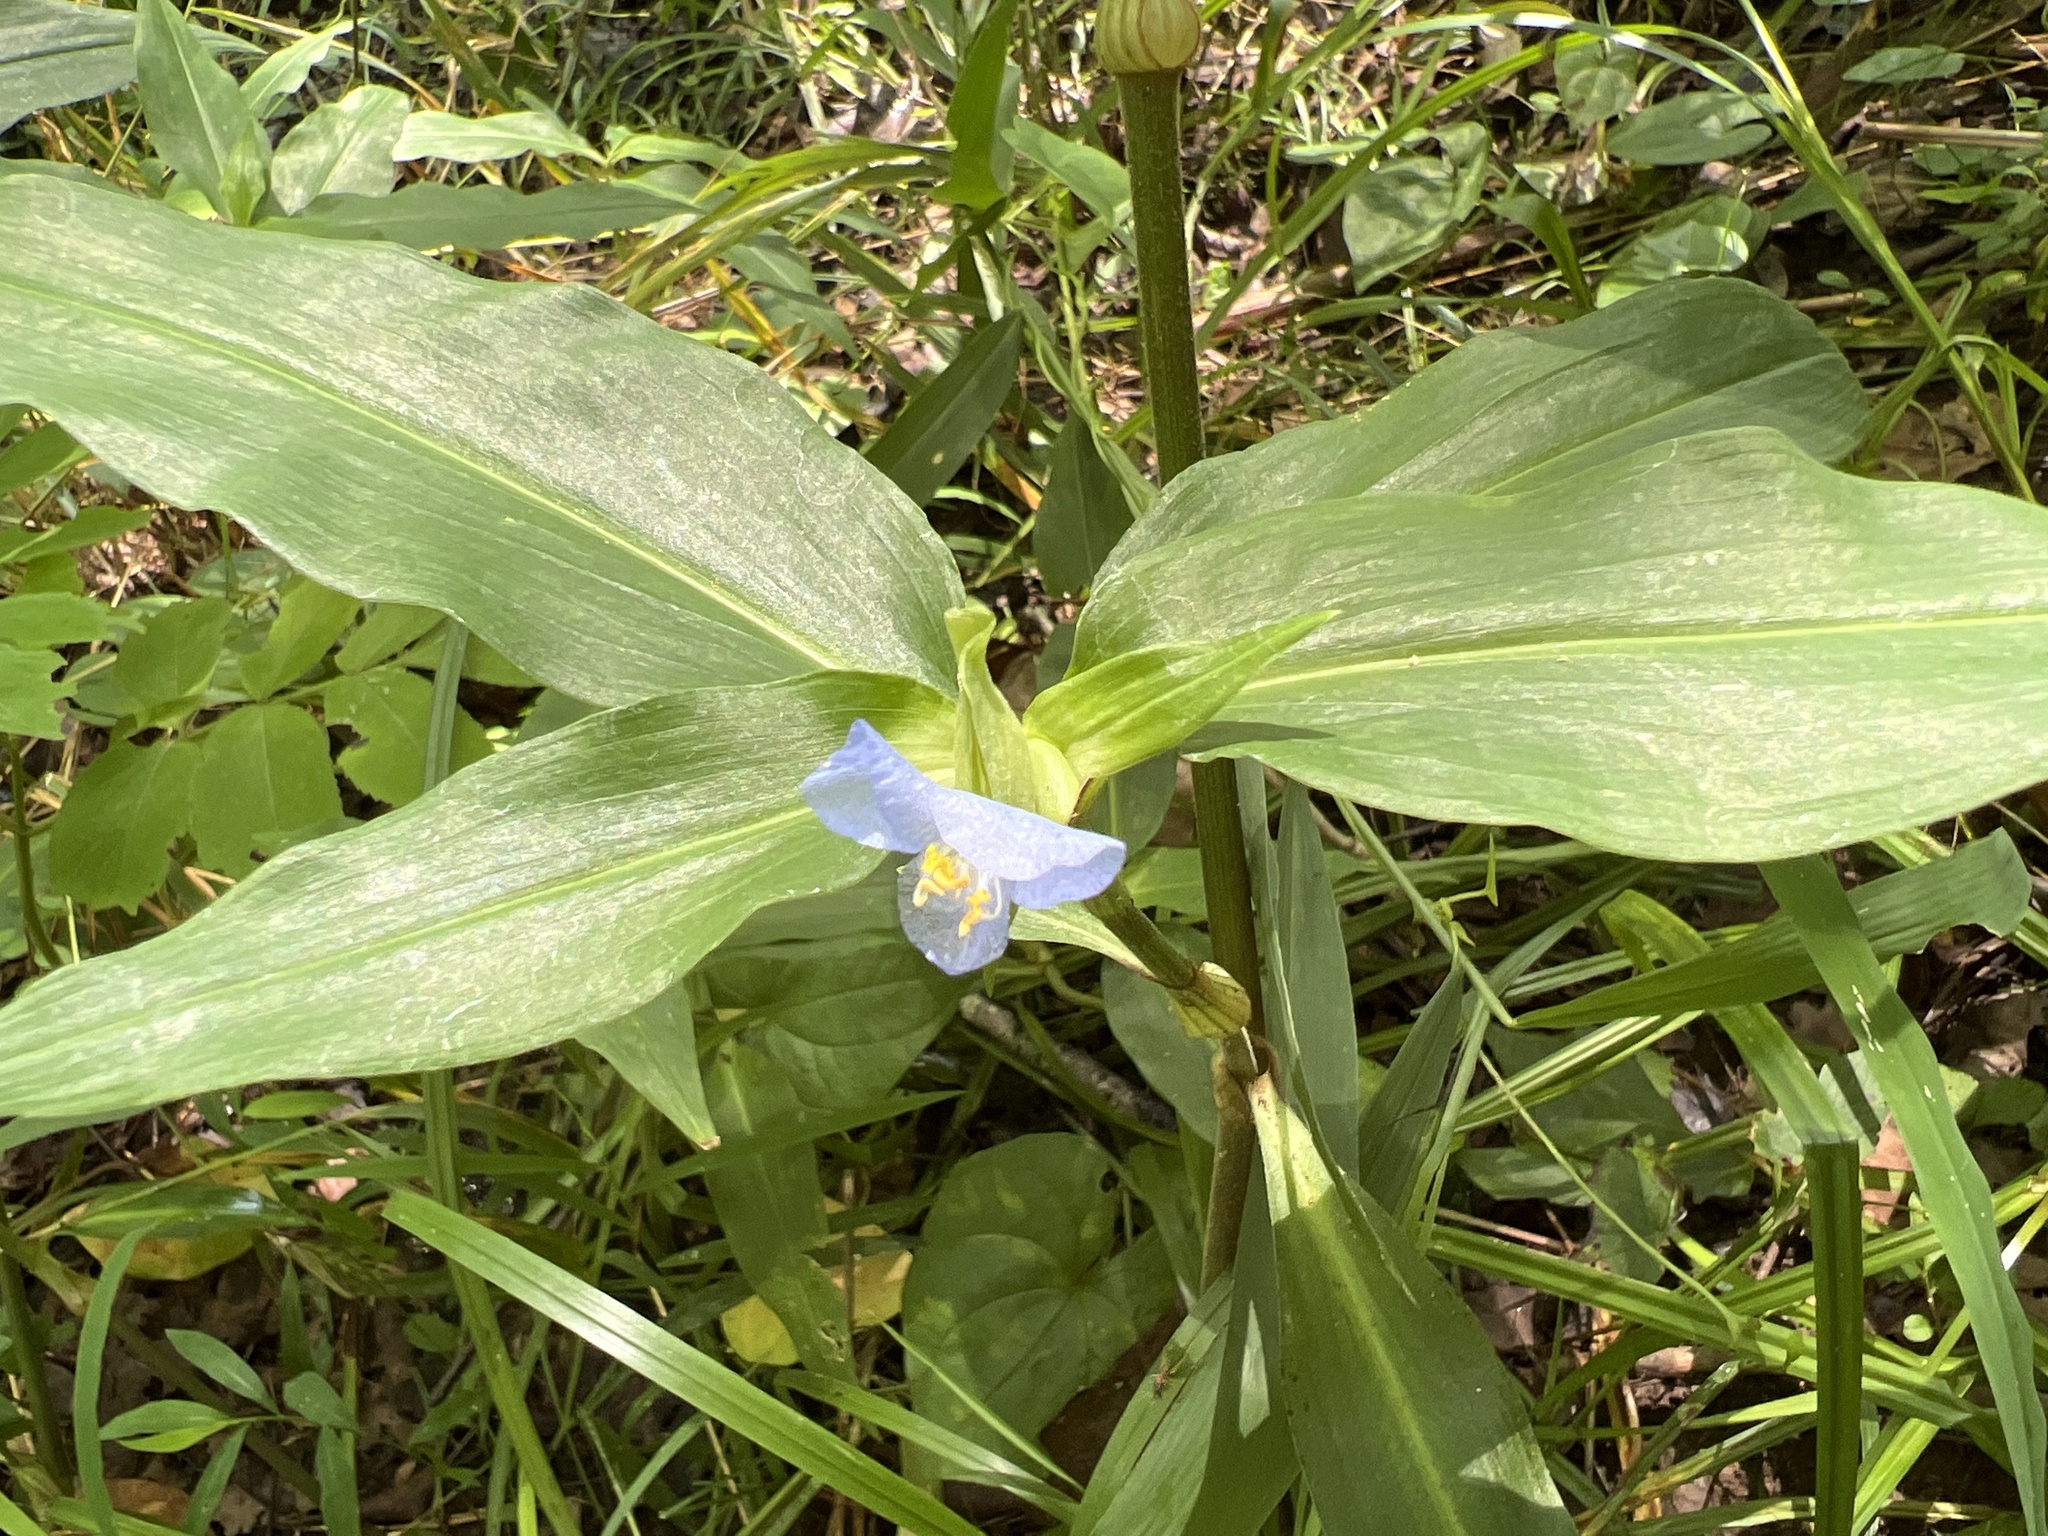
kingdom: Plantae
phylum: Tracheophyta
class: Liliopsida
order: Commelinales
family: Commelinaceae
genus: Commelina
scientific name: Commelina virginica
